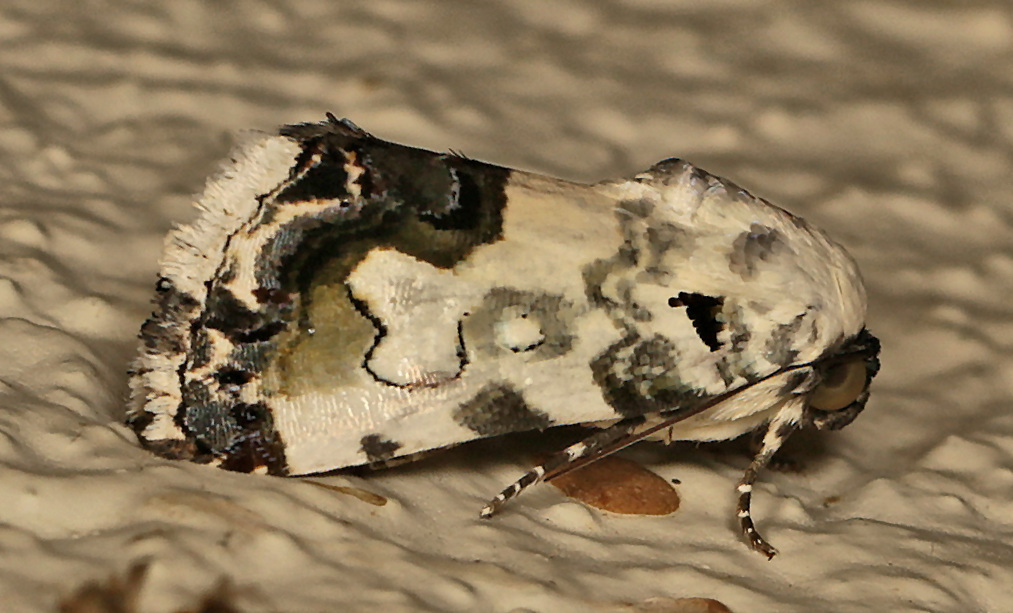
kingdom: Animalia
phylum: Arthropoda
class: Insecta
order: Lepidoptera
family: Noctuidae
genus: Acontia
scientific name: Acontia aurelia
